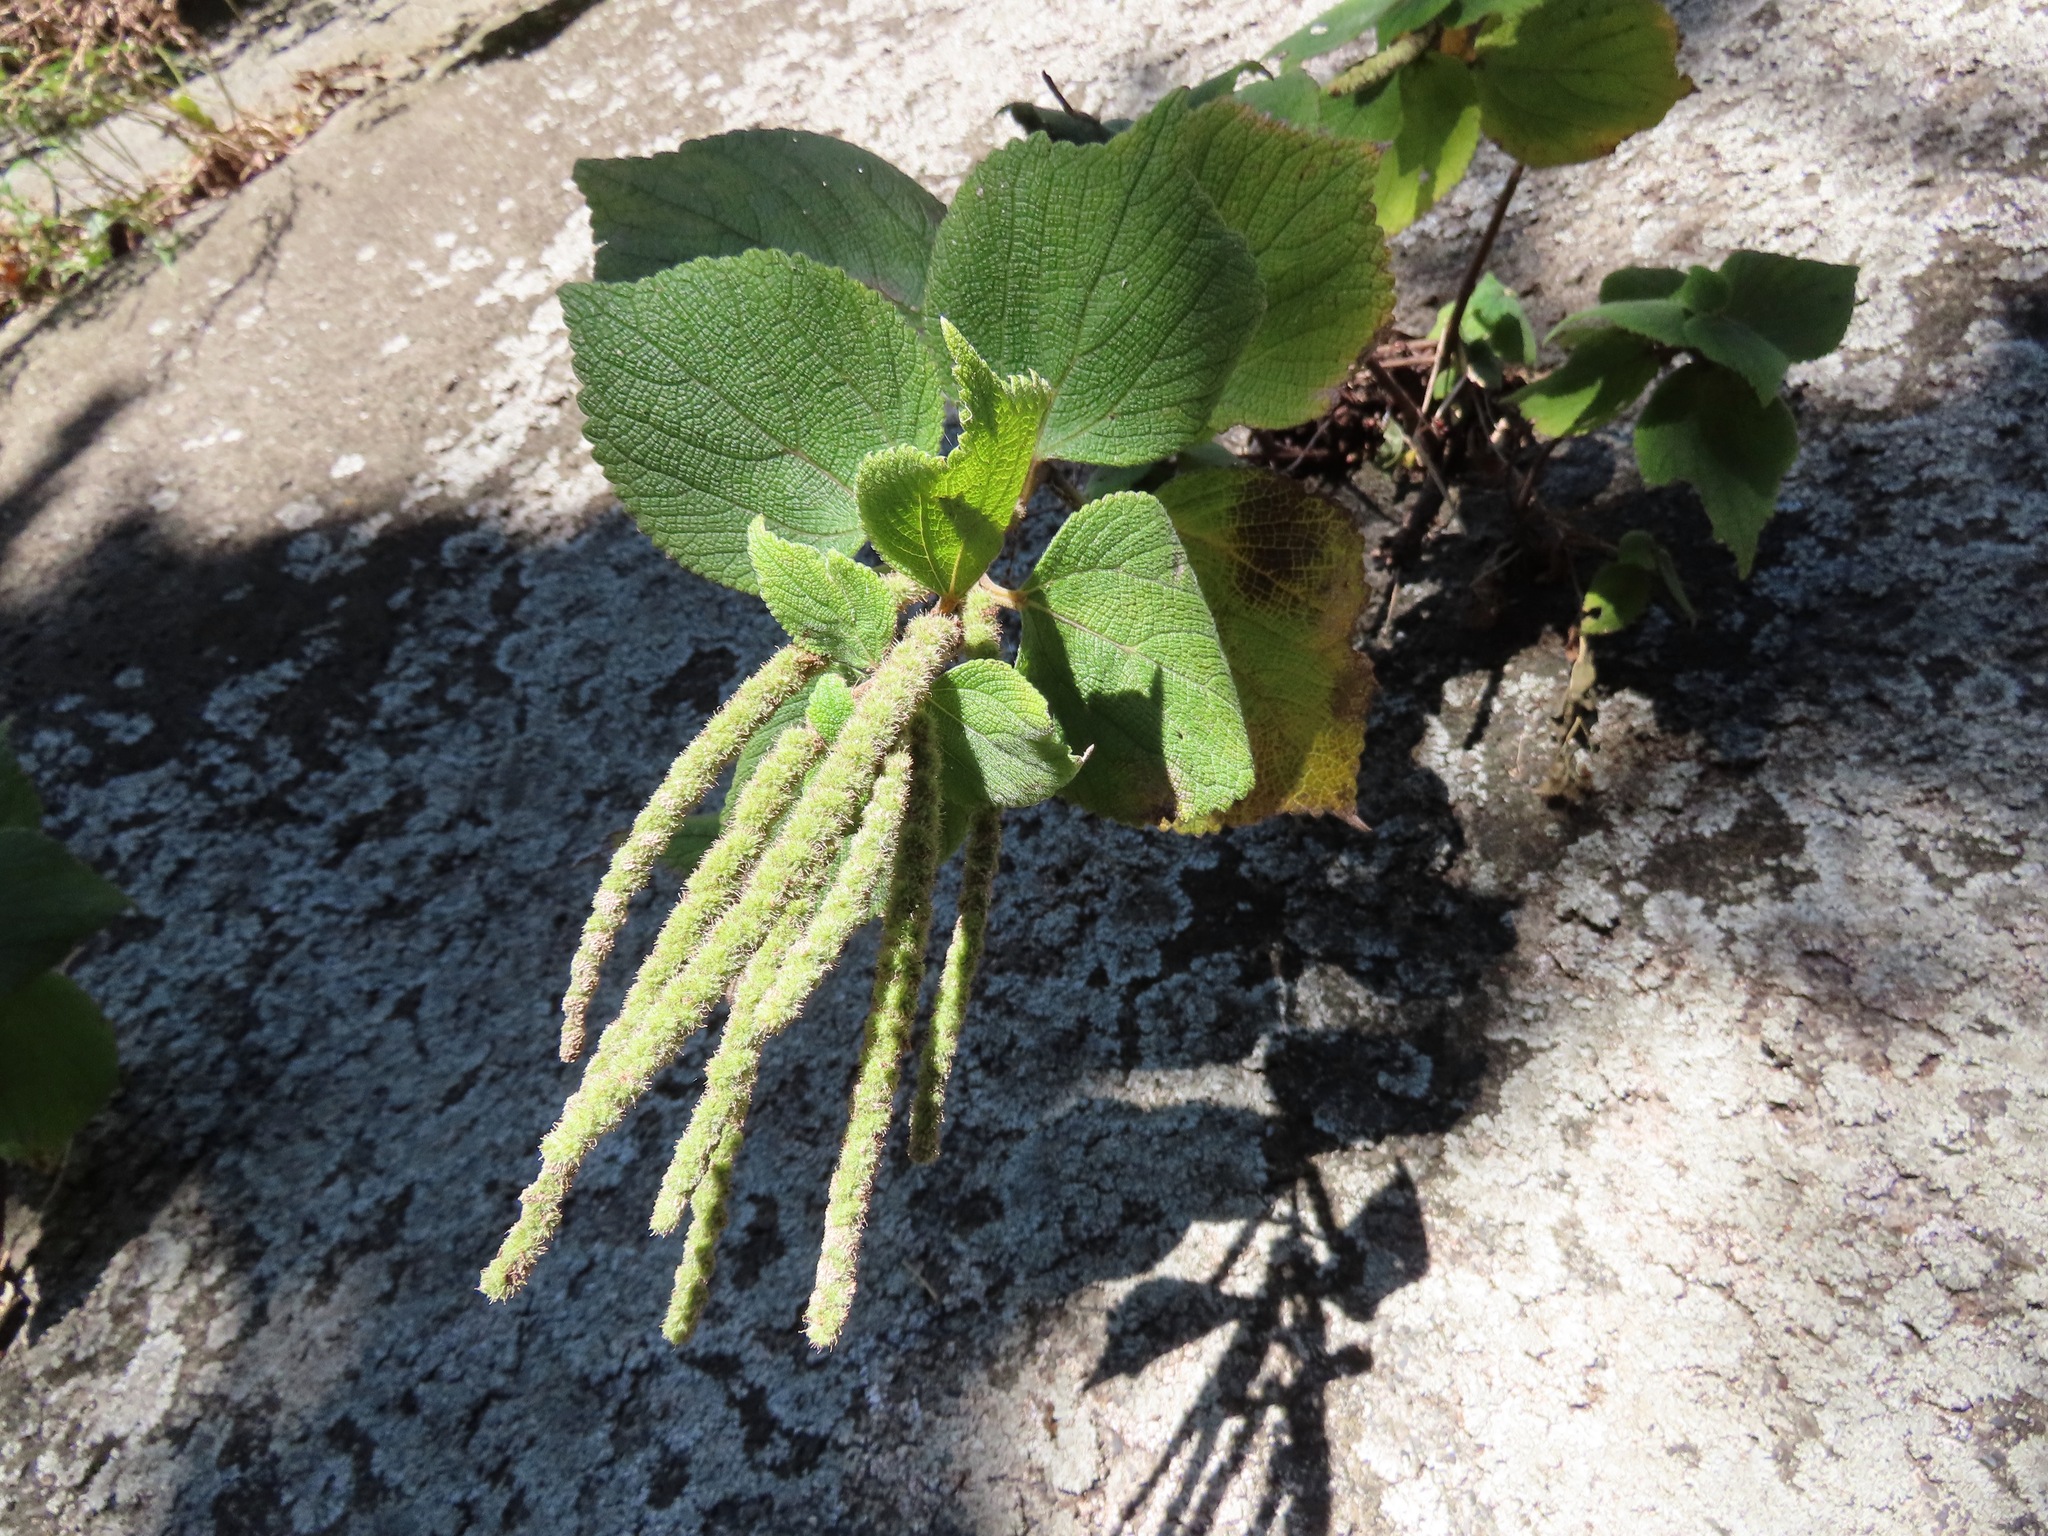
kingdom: Plantae
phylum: Tracheophyta
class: Magnoliopsida
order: Rosales
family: Urticaceae
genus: Boehmeria
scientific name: Boehmeria splitgerbera
